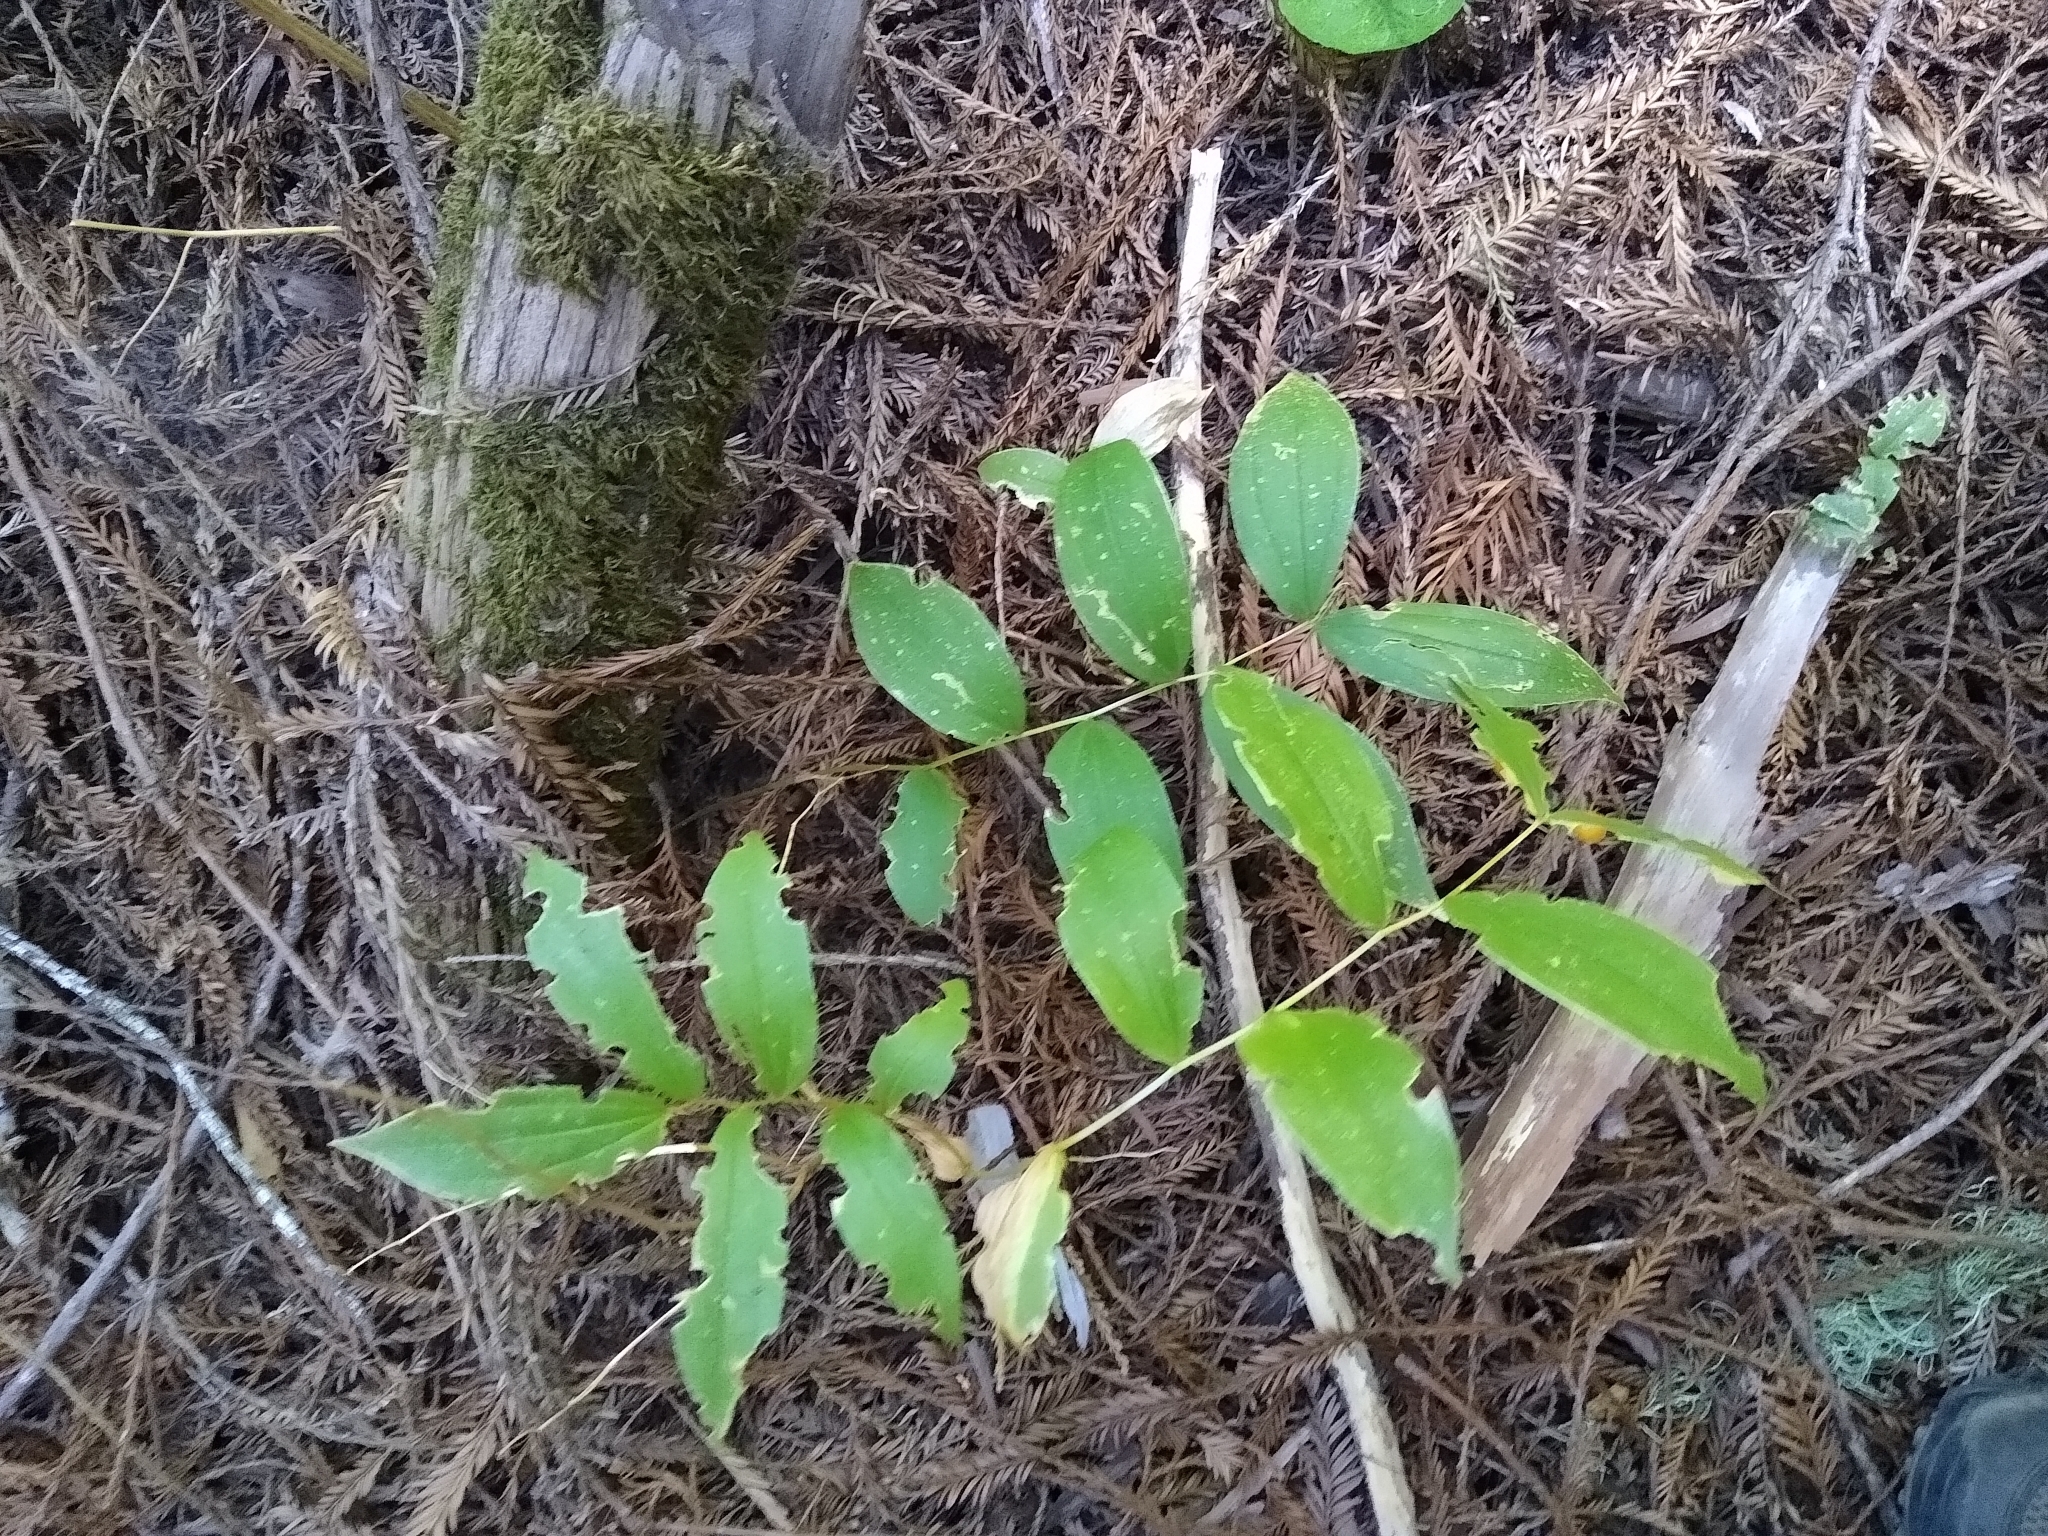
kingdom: Plantae
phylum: Tracheophyta
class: Liliopsida
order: Liliales
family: Liliaceae
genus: Prosartes
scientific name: Prosartes smithii
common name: Fairy-lantern
